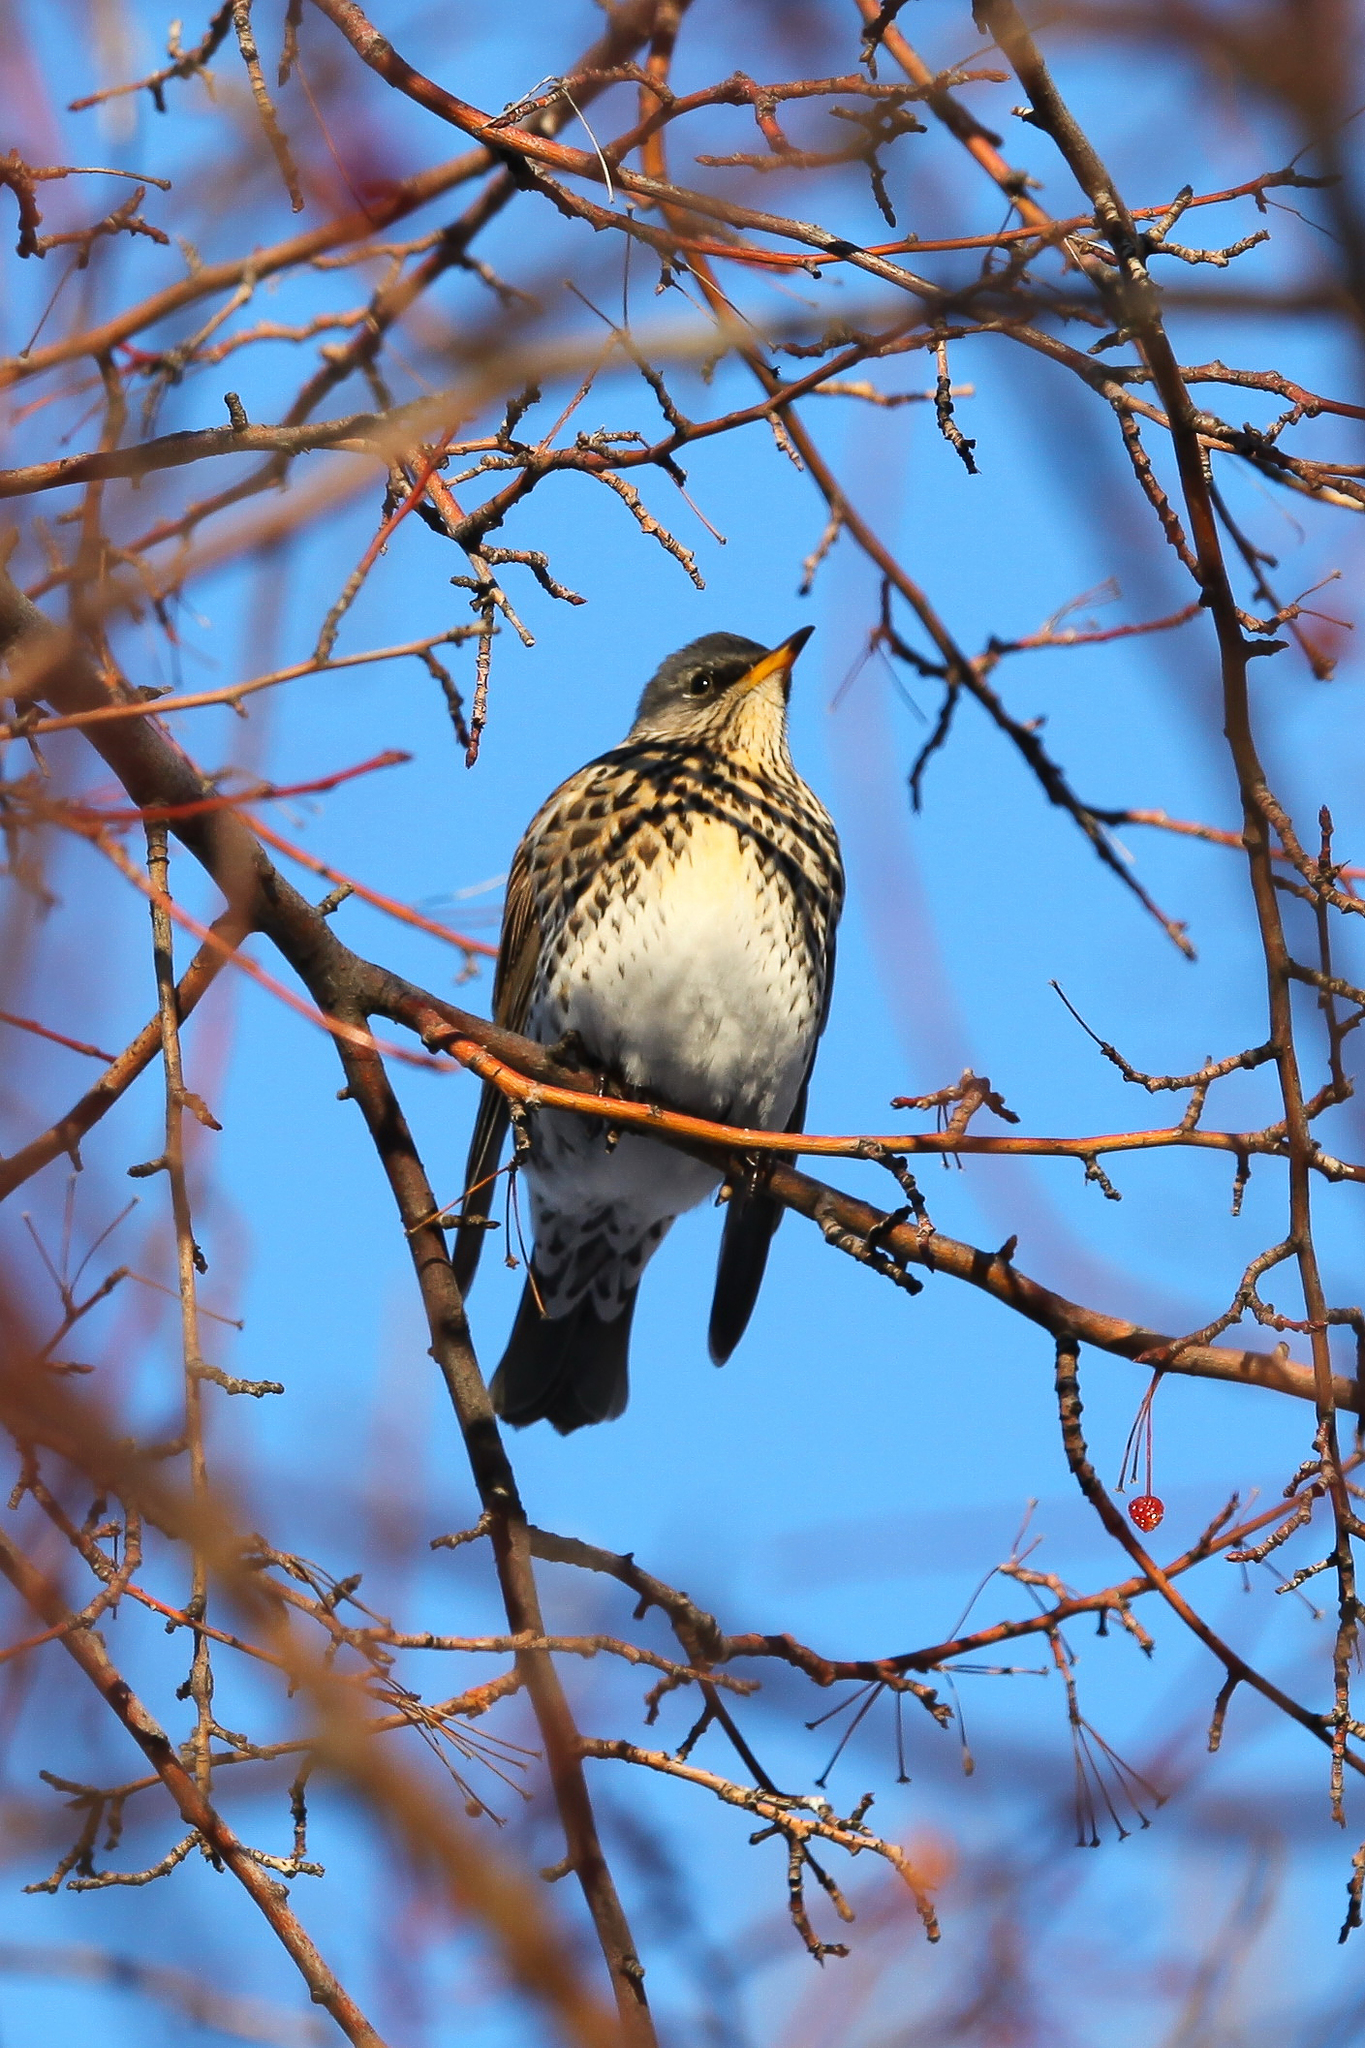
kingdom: Animalia
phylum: Chordata
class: Aves
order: Passeriformes
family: Turdidae
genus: Turdus
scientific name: Turdus pilaris
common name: Fieldfare
